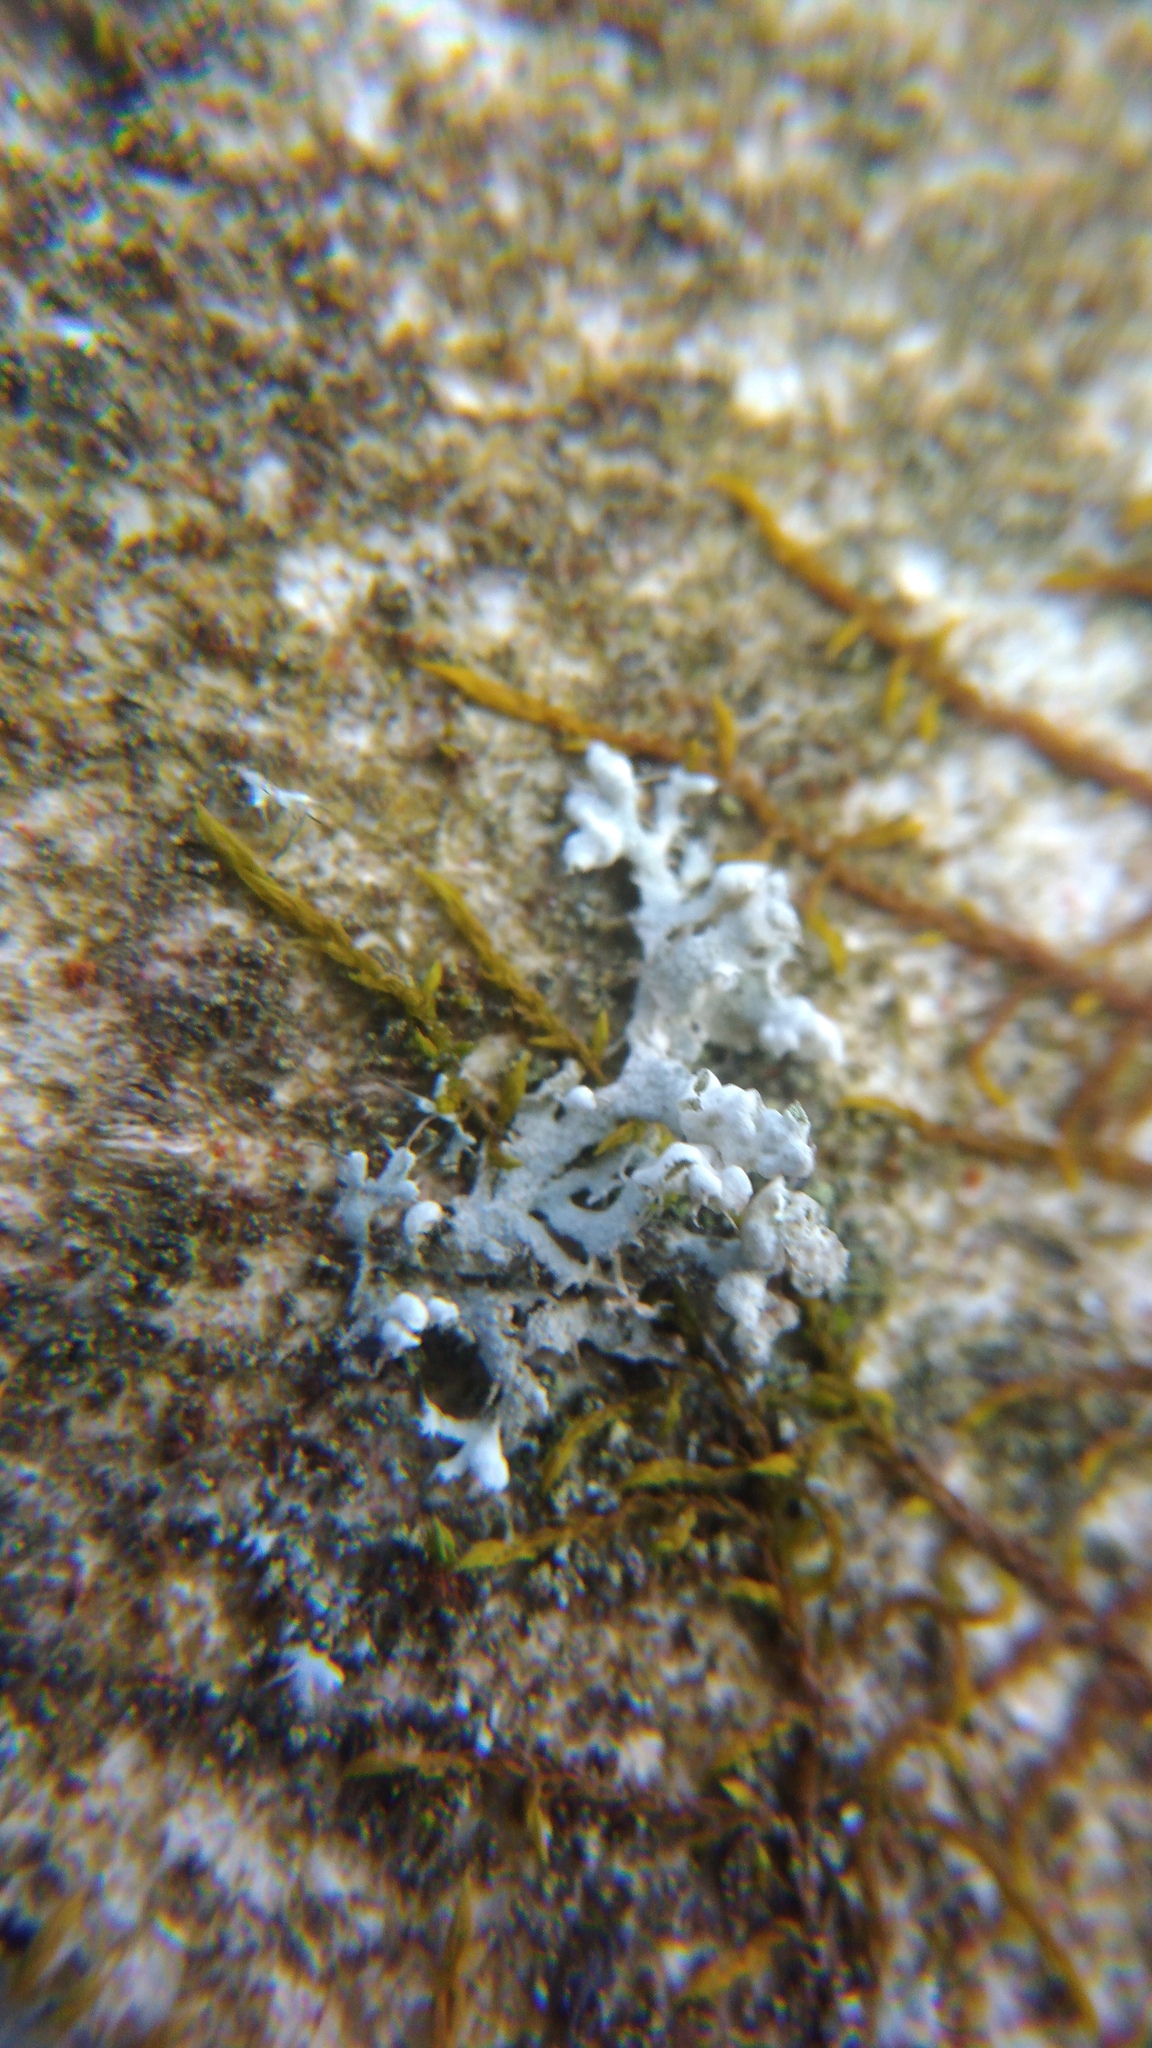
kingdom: Fungi
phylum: Ascomycota
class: Lecanoromycetes
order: Caliciales
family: Physciaceae
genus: Physcia
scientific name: Physcia adscendens
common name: Hooded rosette lichen
